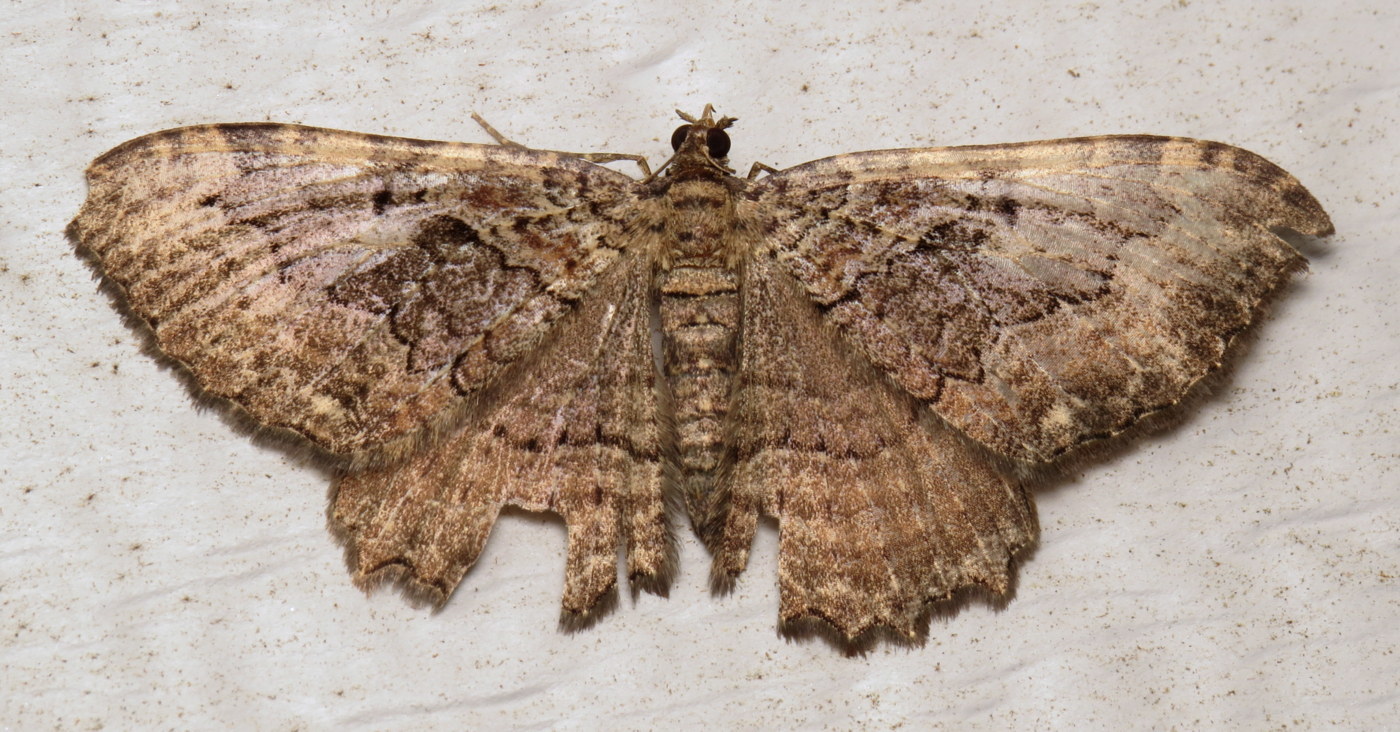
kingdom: Animalia
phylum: Arthropoda
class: Insecta
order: Lepidoptera
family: Geometridae
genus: Rheumaptera
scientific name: Rheumaptera
